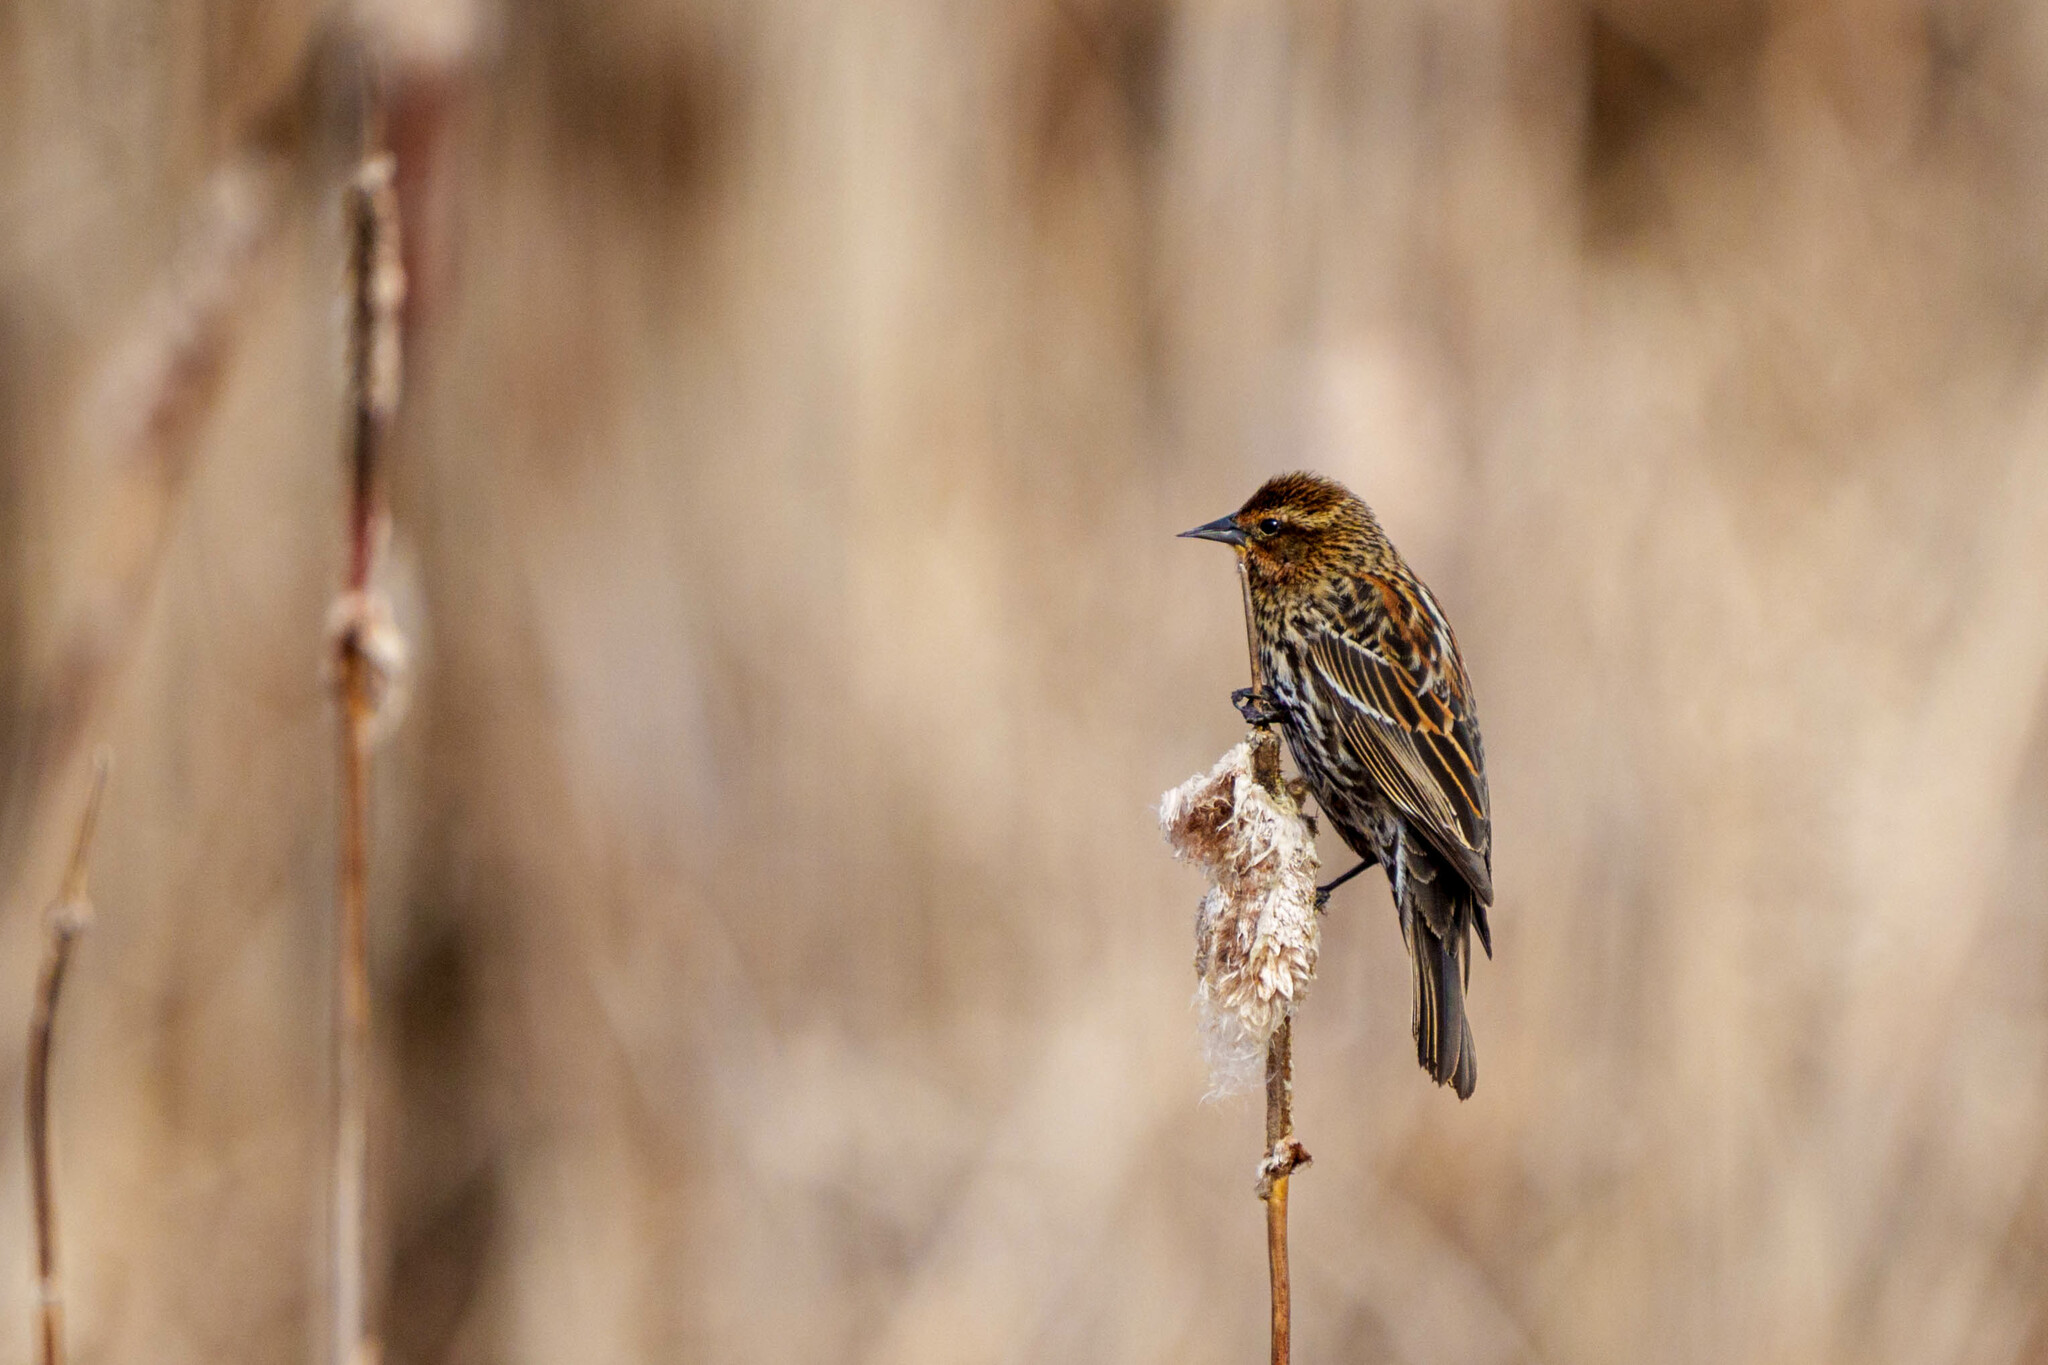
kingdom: Animalia
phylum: Chordata
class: Aves
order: Passeriformes
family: Icteridae
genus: Agelaius
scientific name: Agelaius phoeniceus
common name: Red-winged blackbird
